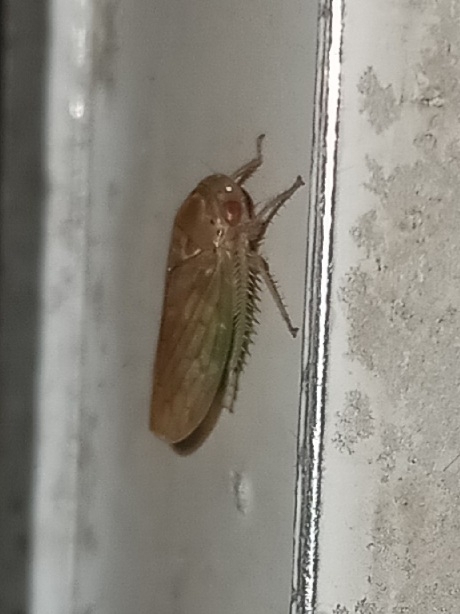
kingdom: Animalia
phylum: Arthropoda
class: Insecta
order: Hemiptera
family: Cicadellidae
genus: Polana
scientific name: Polana quadrinotata
